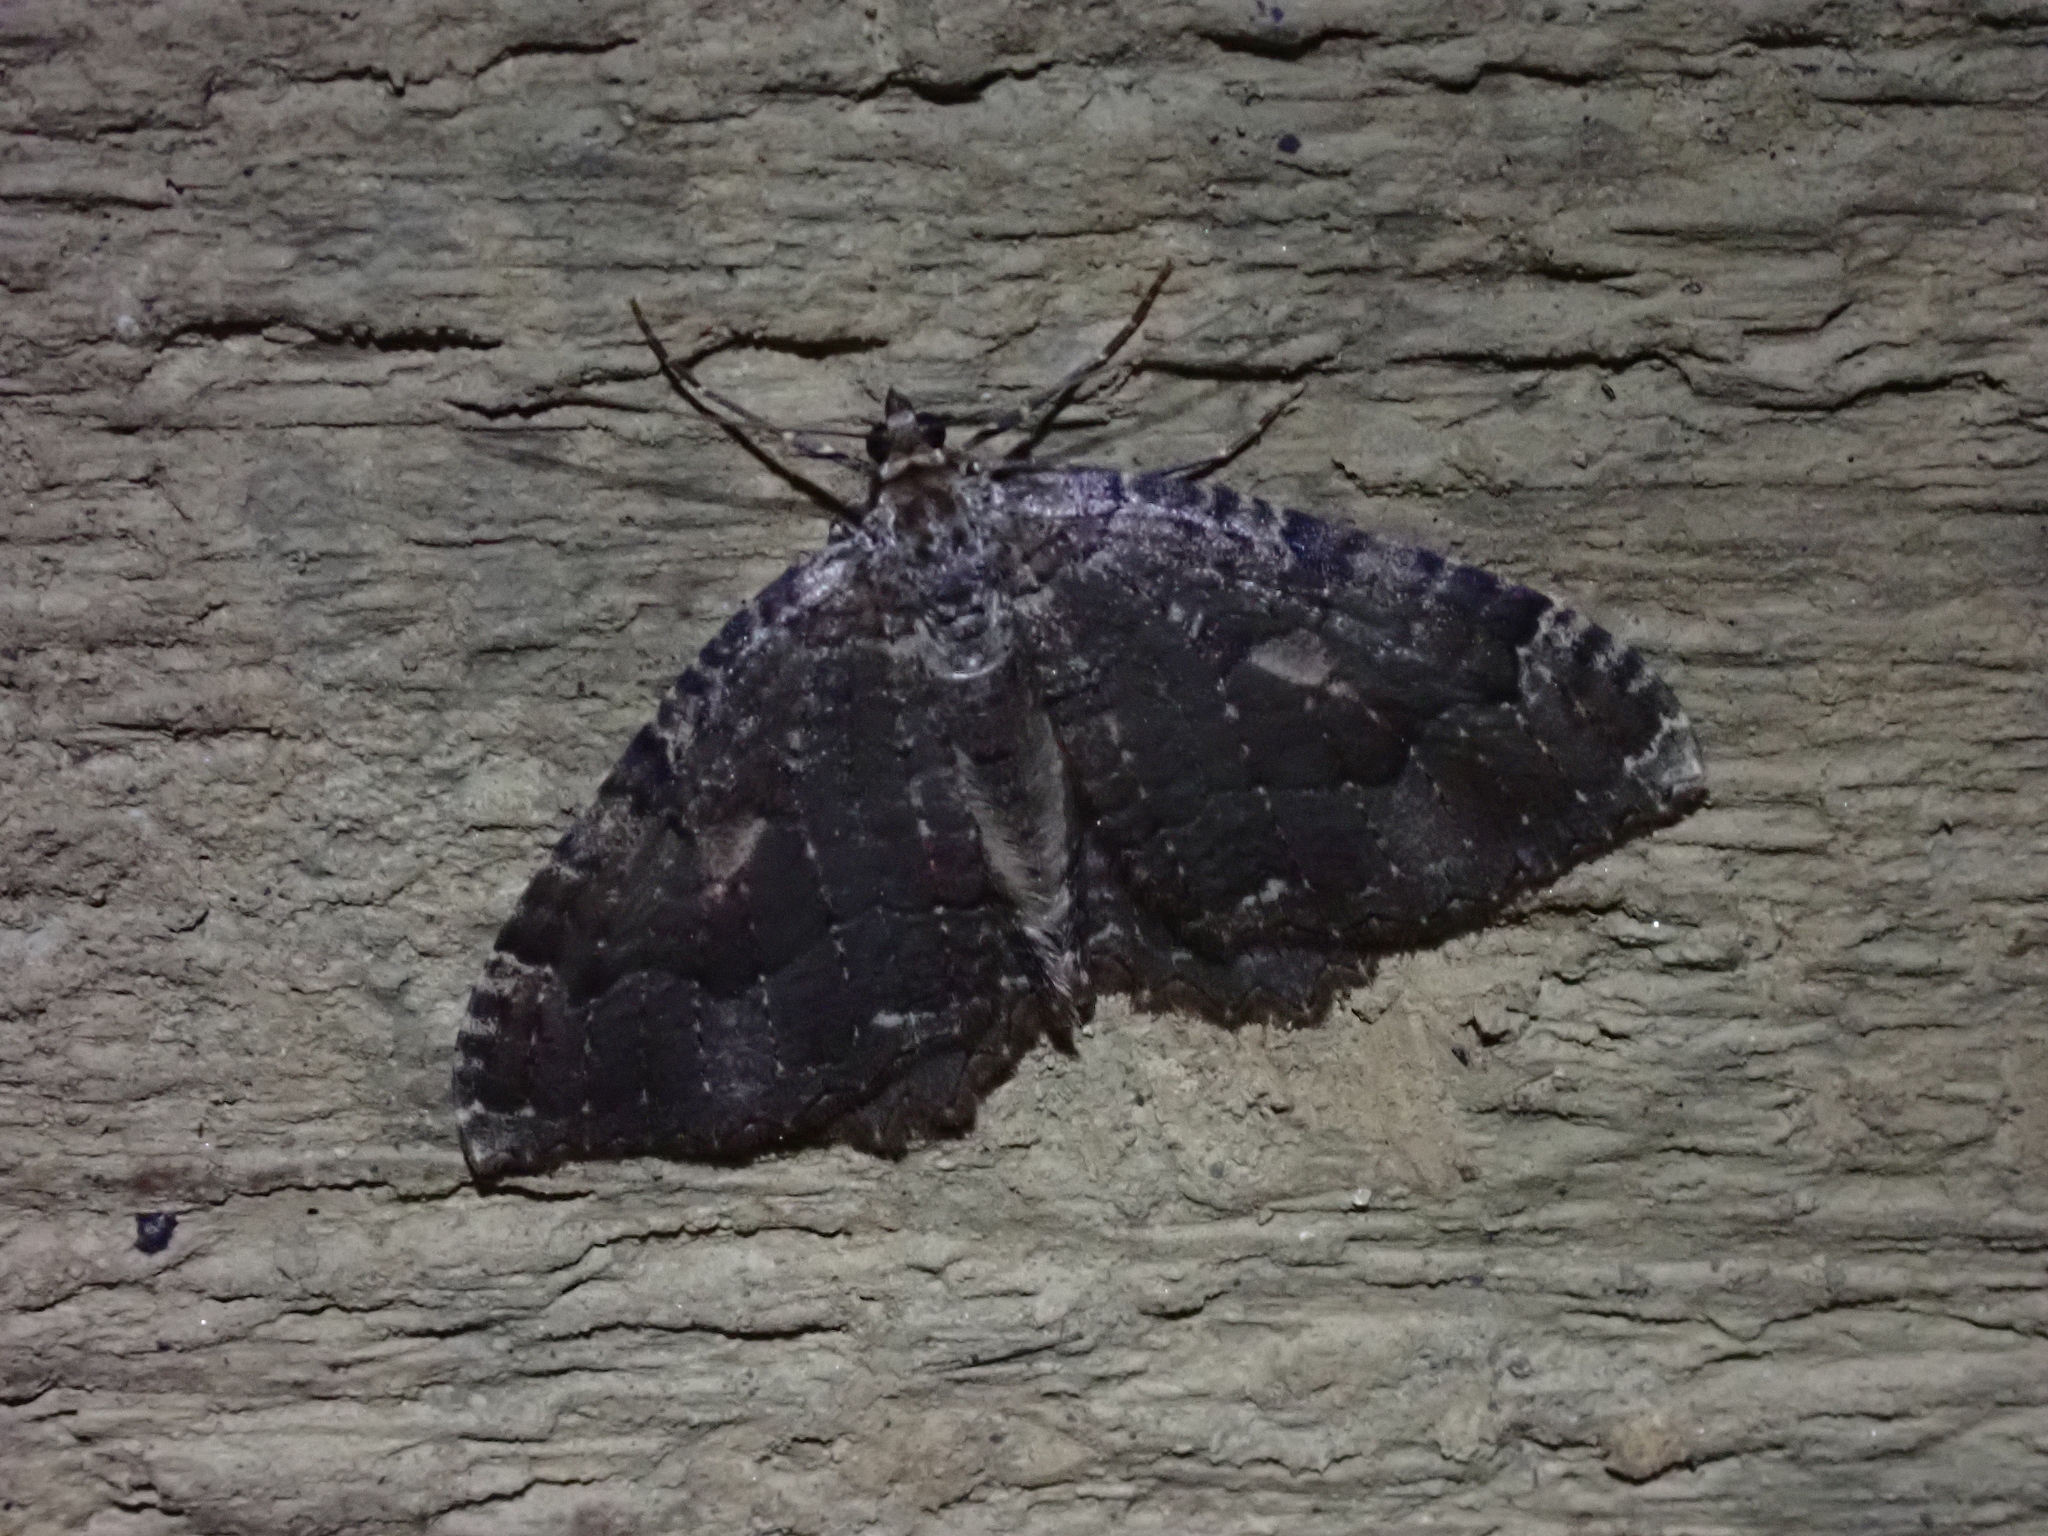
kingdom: Animalia
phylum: Arthropoda
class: Insecta
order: Lepidoptera
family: Geometridae
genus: Triphosa
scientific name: Triphosa dubitata
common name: Tissue
